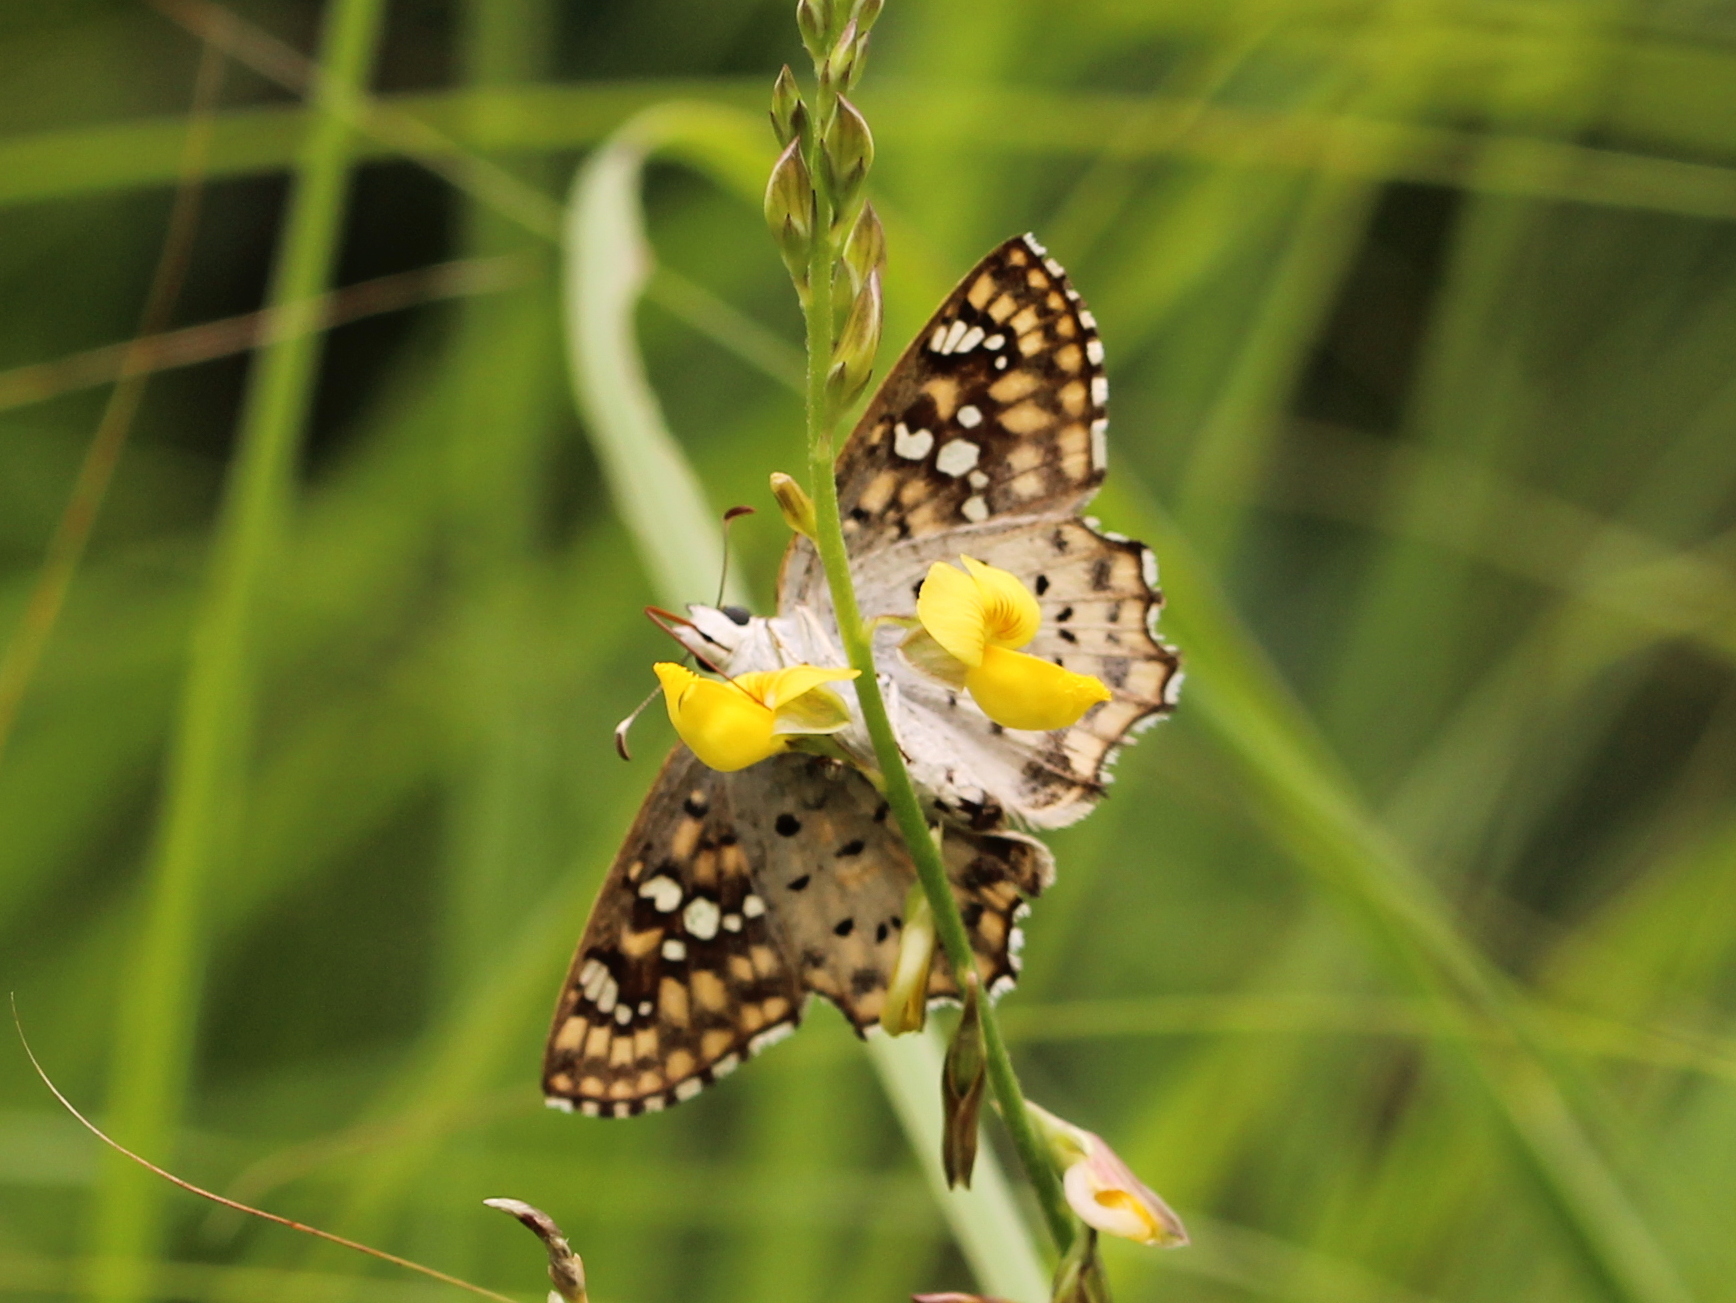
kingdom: Animalia
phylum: Arthropoda
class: Insecta
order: Lepidoptera
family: Hesperiidae
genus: Caprona
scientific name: Caprona alida
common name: Spotted angle
